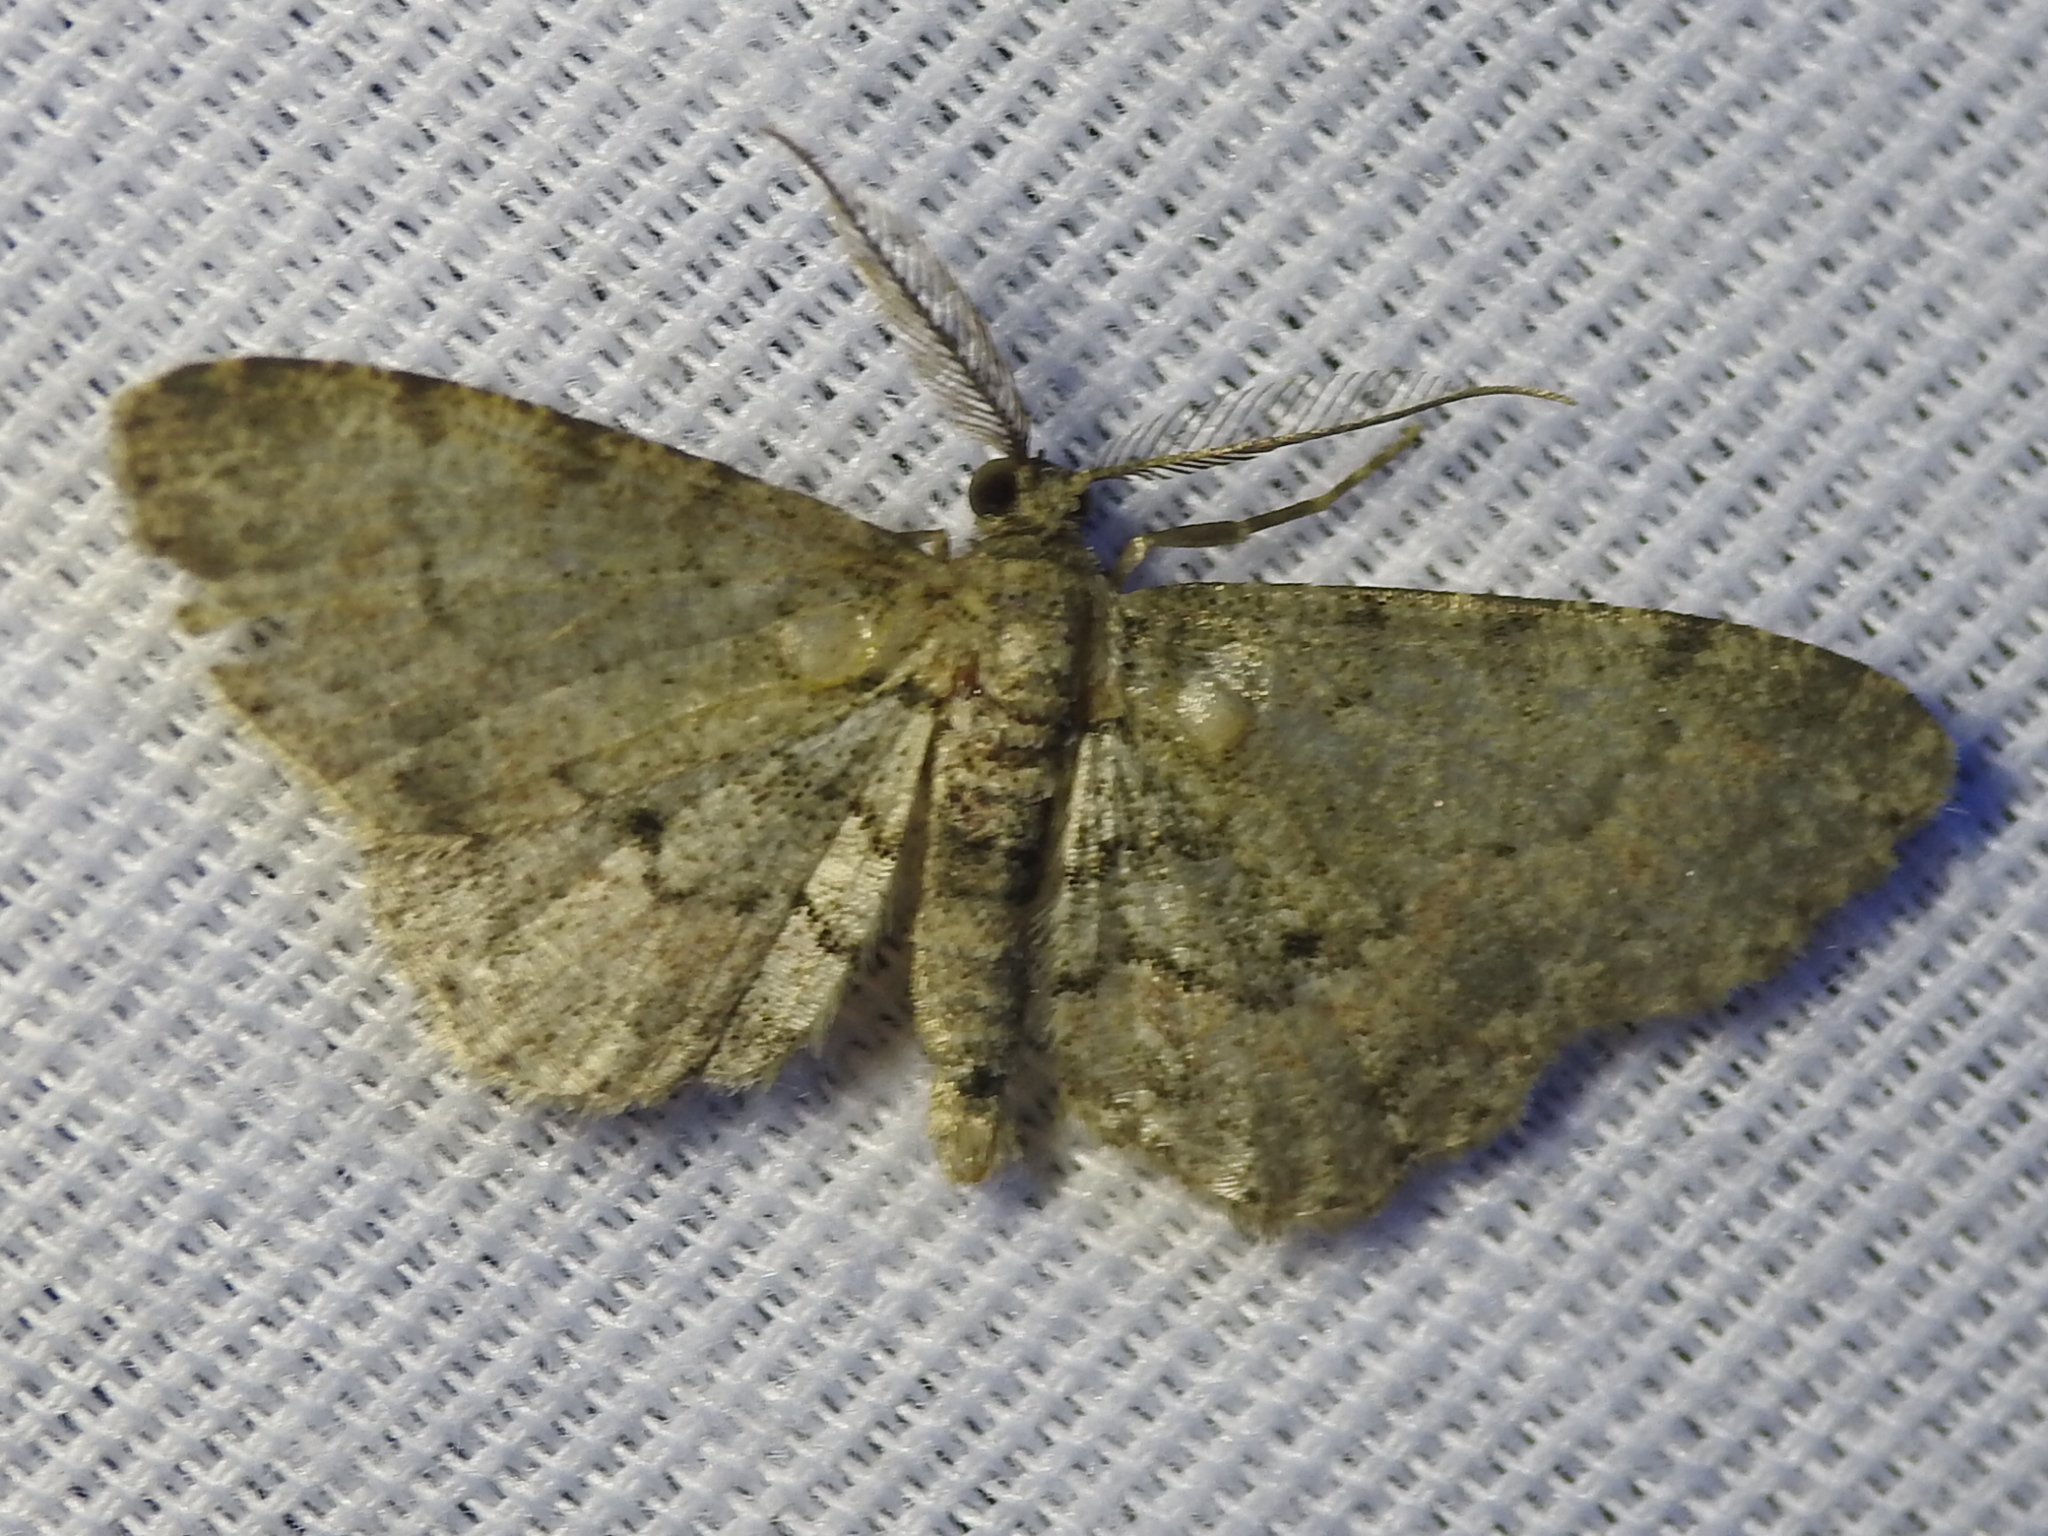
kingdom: Animalia
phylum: Arthropoda
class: Insecta
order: Lepidoptera
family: Geometridae
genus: Glenoides
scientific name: Glenoides texanaria
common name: Texas gray
